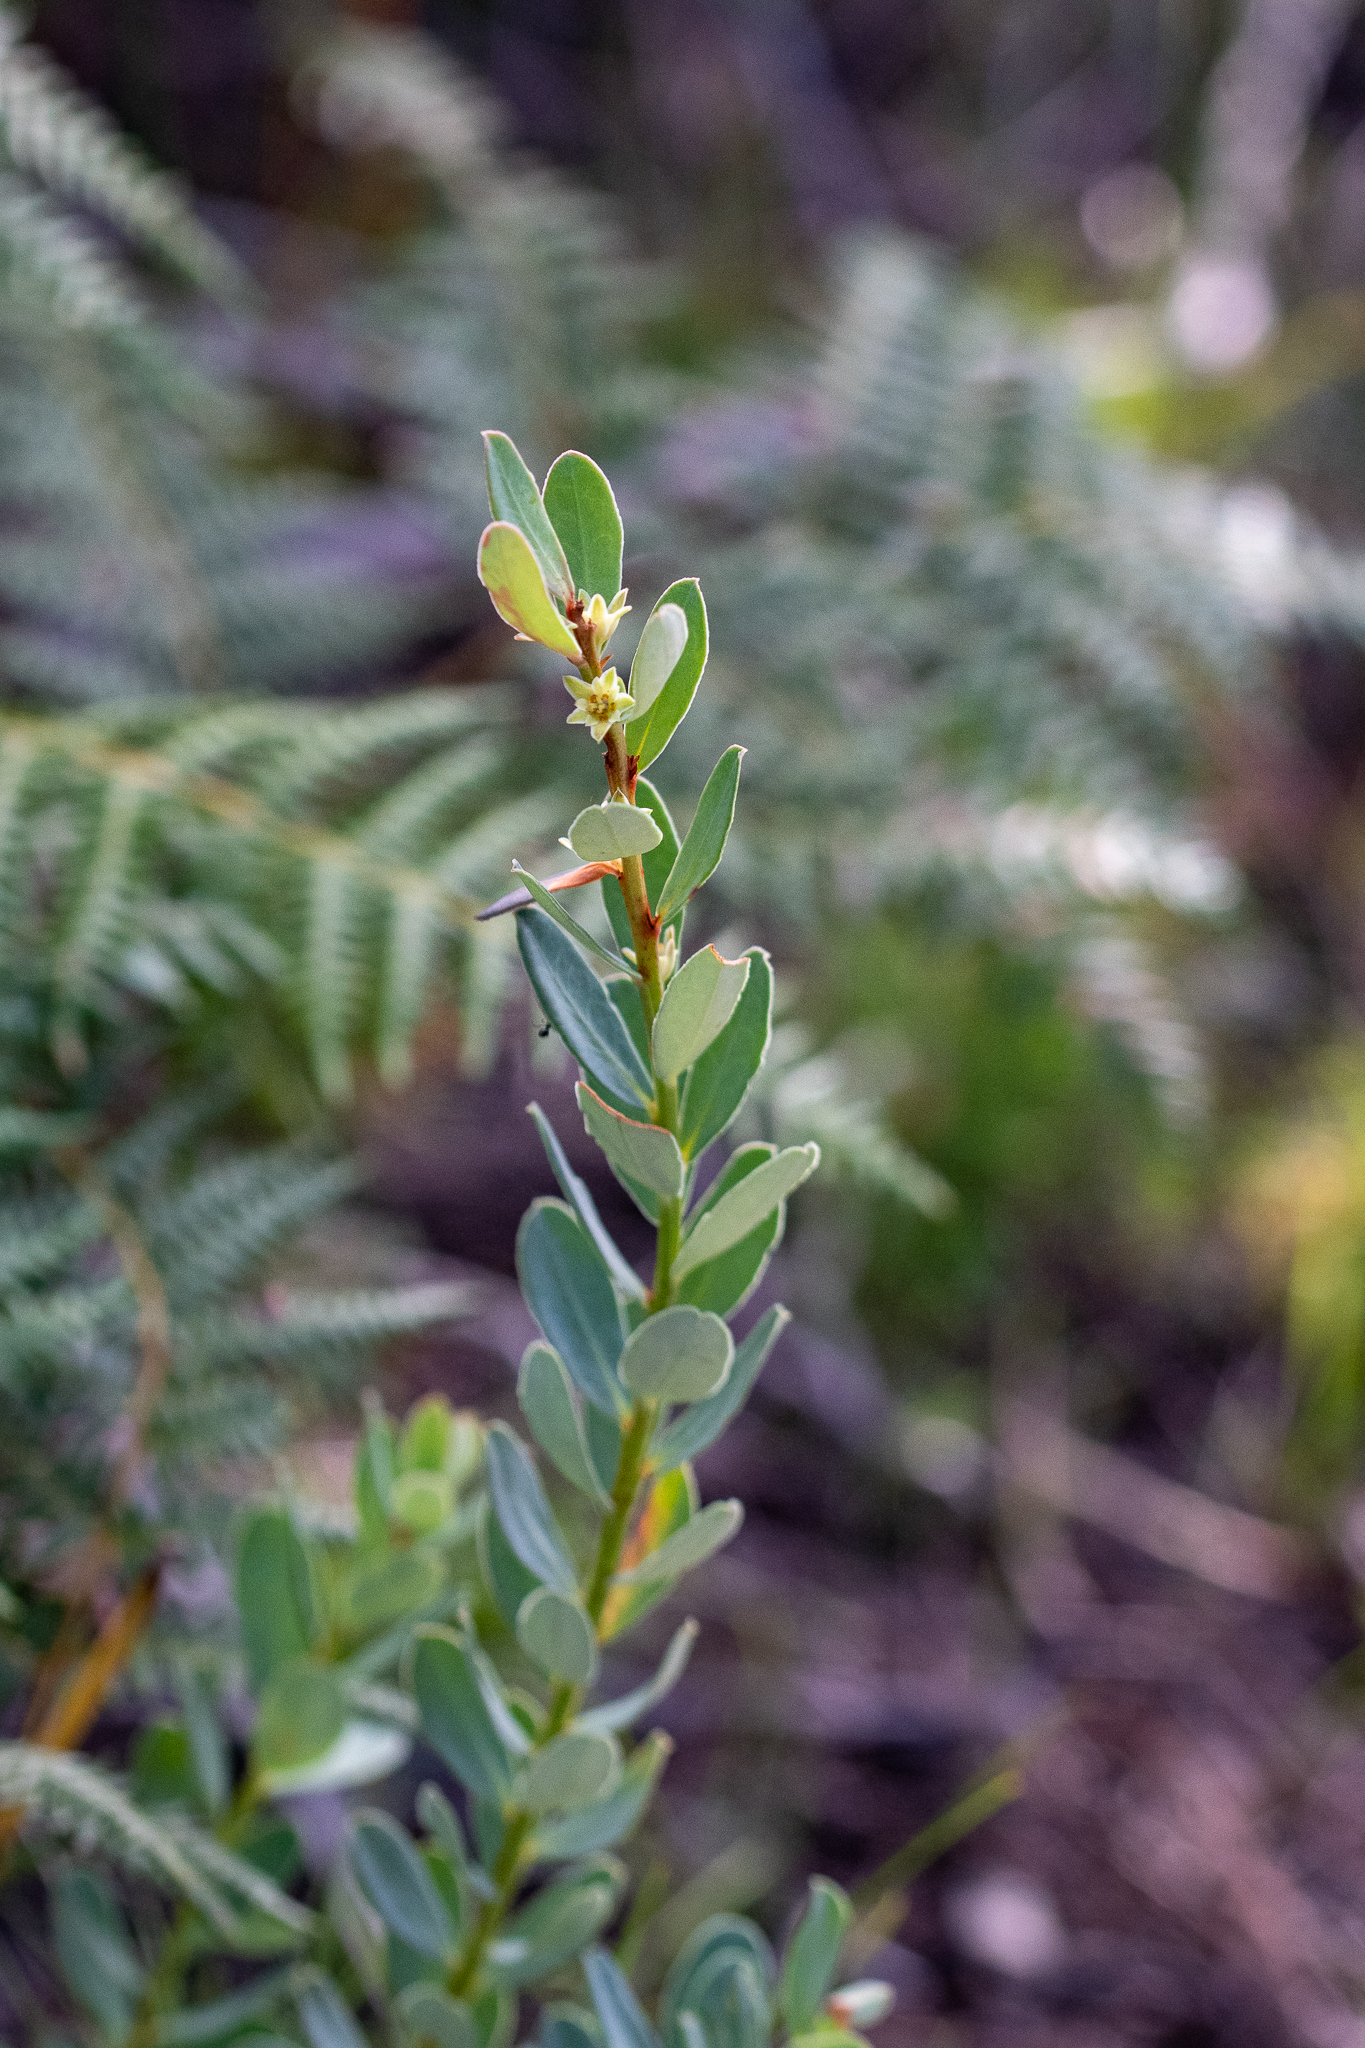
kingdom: Plantae
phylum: Tracheophyta
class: Magnoliopsida
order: Malpighiales
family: Peraceae
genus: Clutia
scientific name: Clutia alaternoides
